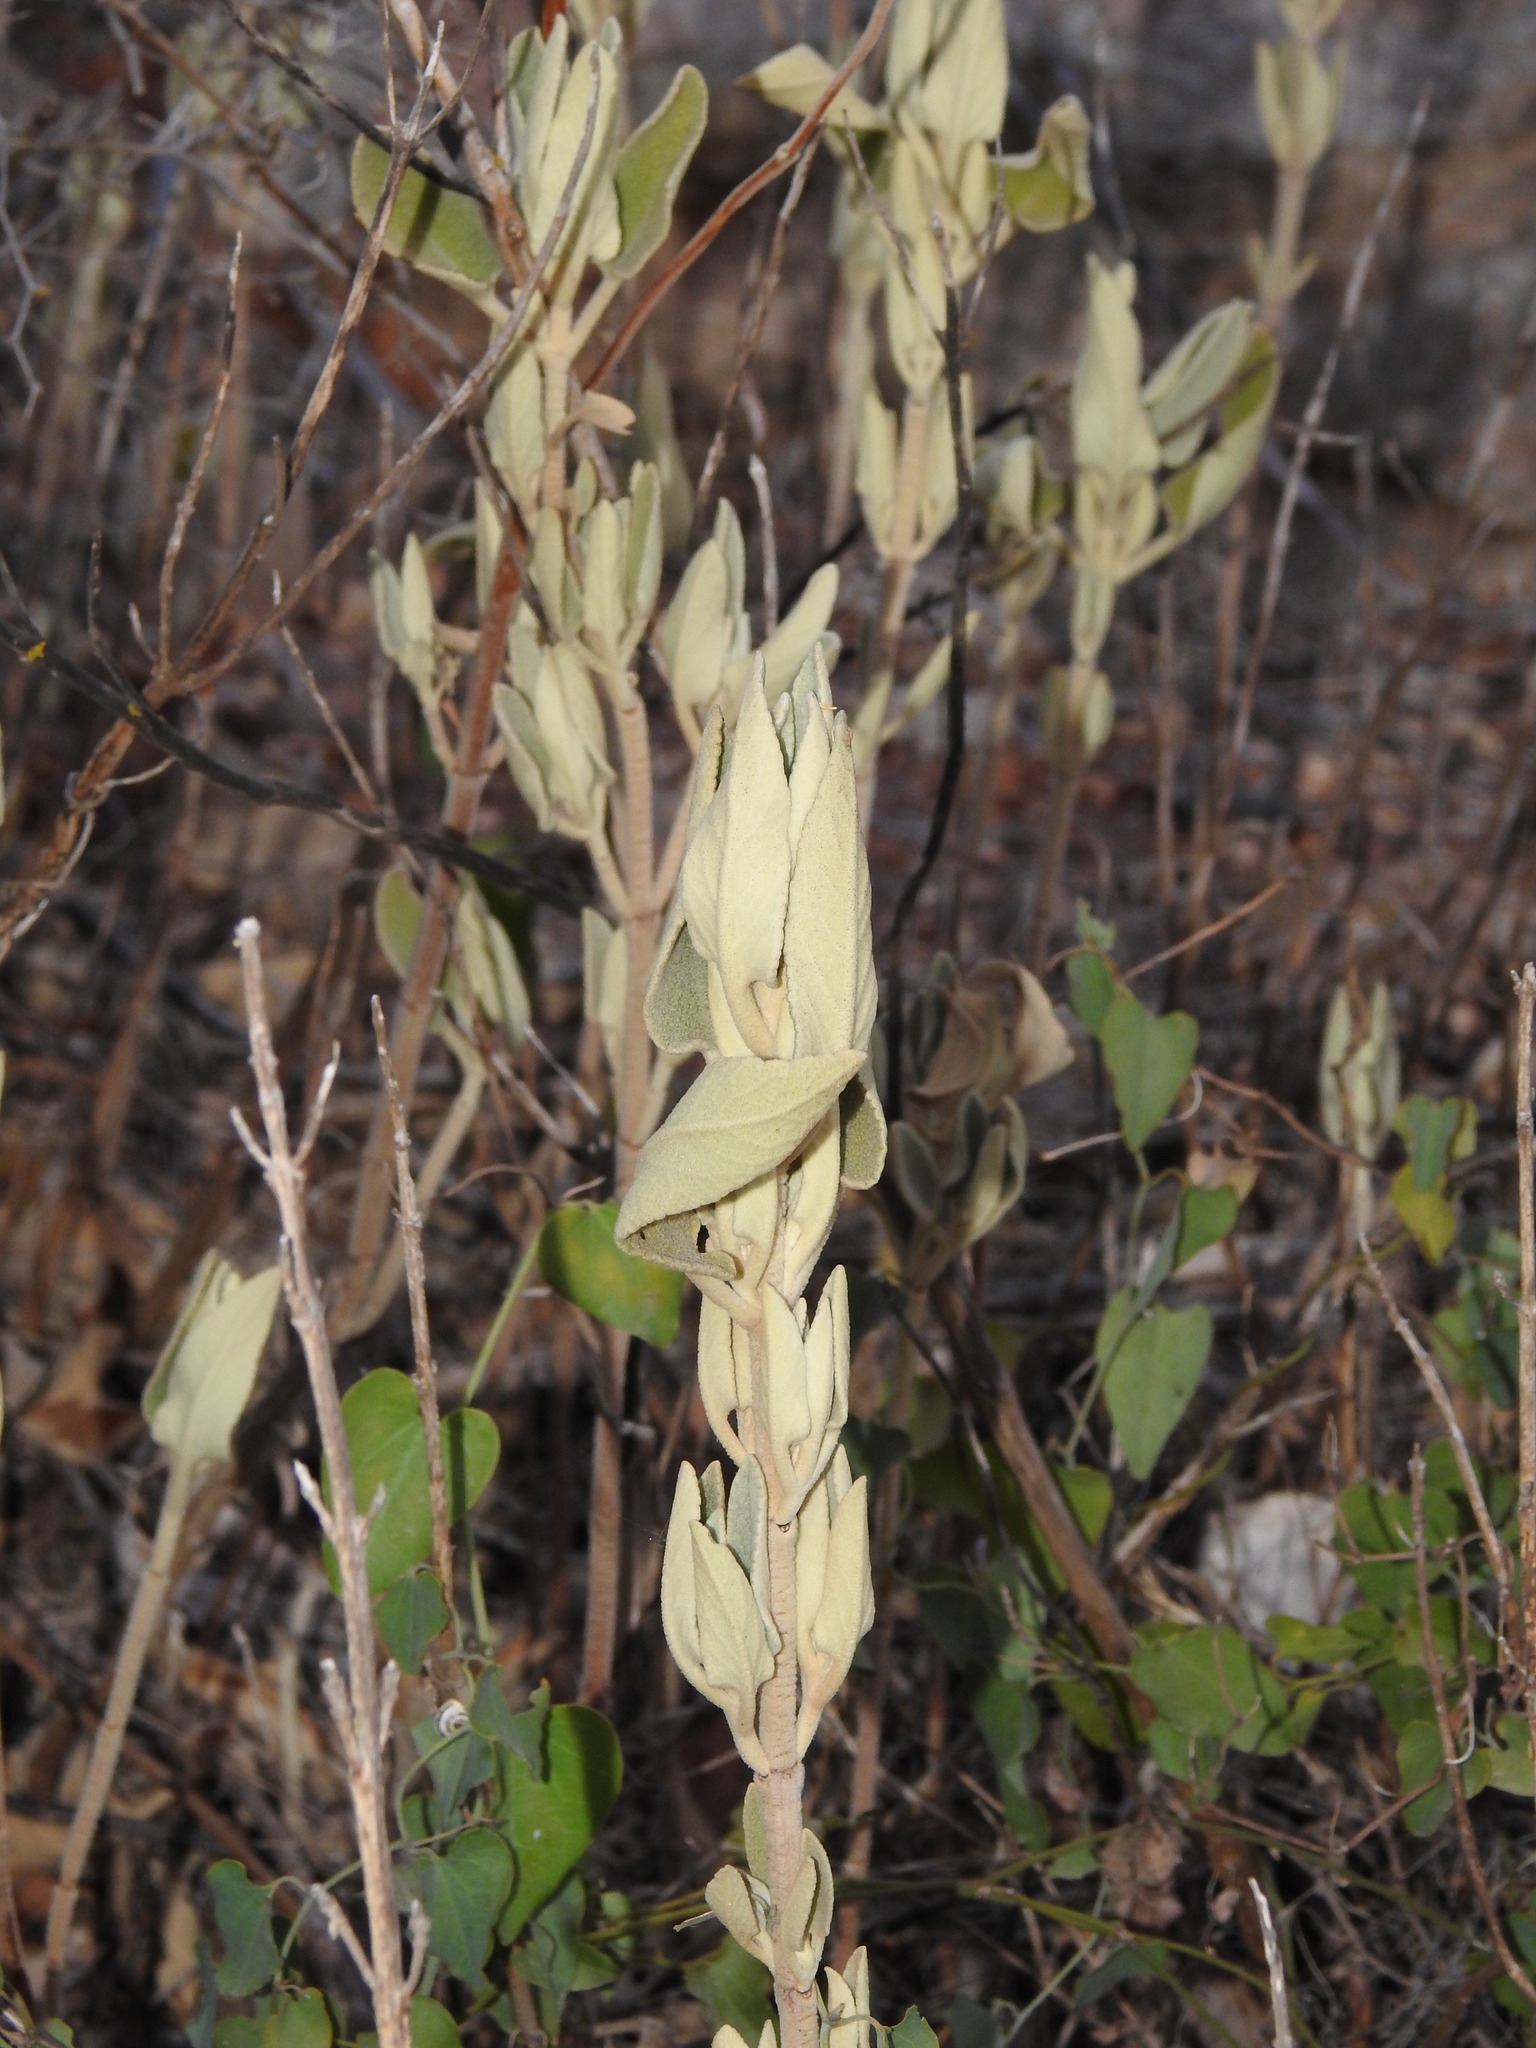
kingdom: Plantae
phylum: Tracheophyta
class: Magnoliopsida
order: Lamiales
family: Lamiaceae
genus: Phlomis
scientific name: Phlomis purpurea
